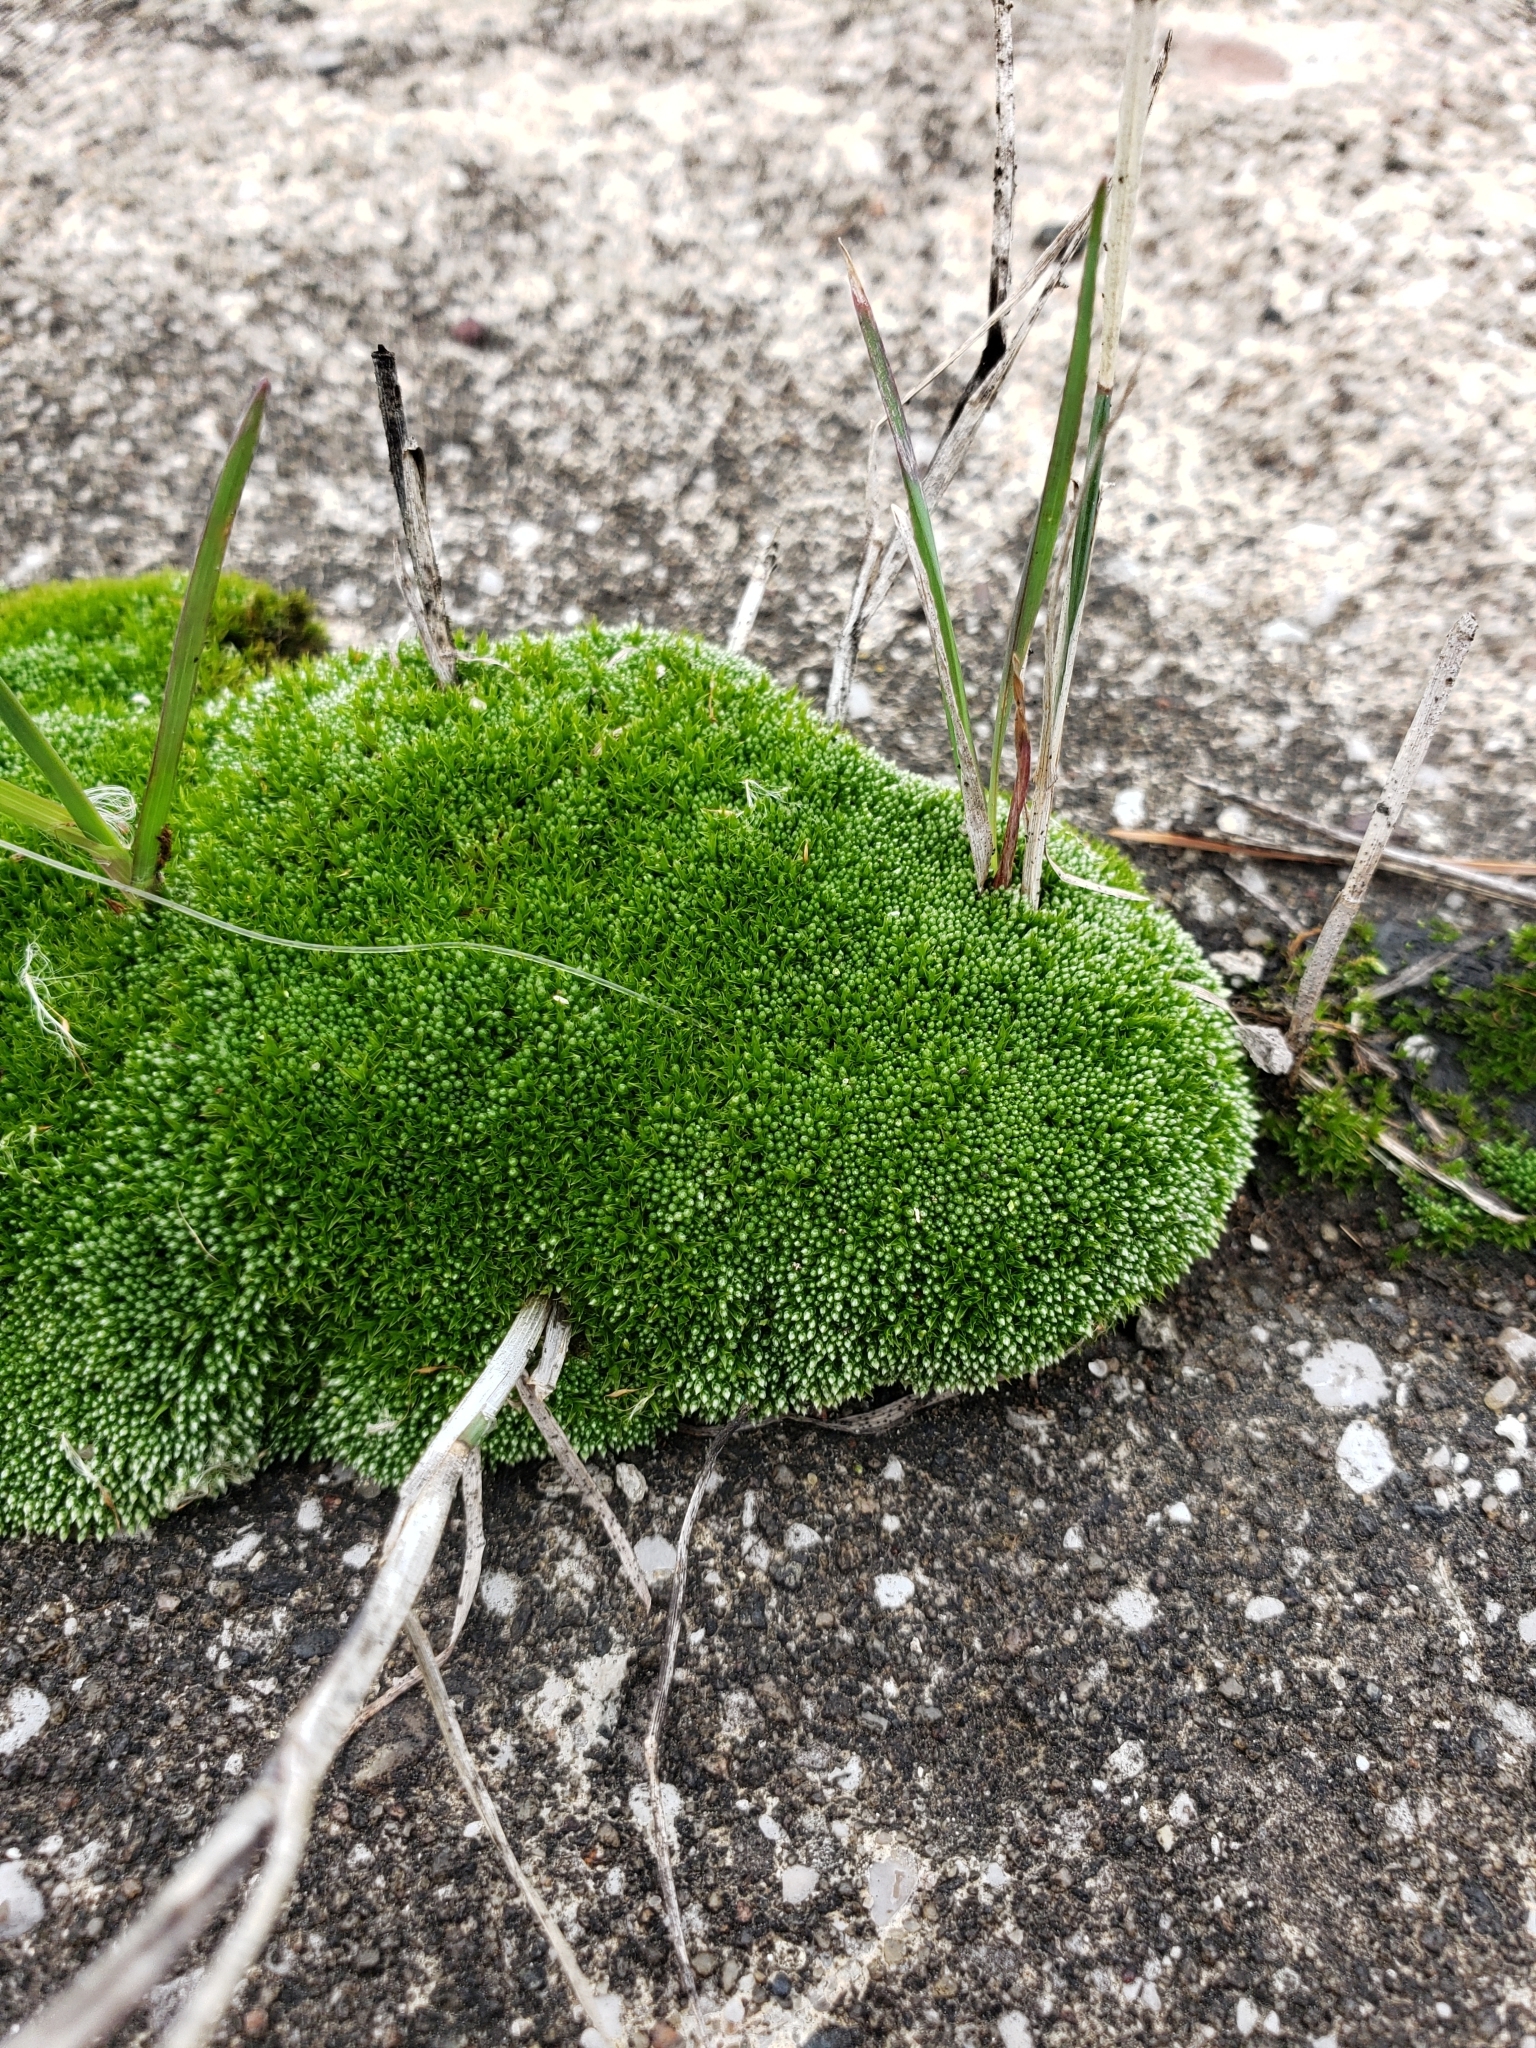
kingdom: Plantae
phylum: Bryophyta
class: Bryopsida
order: Bryales
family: Bryaceae
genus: Bryum
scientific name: Bryum argenteum
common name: Silver-moss
